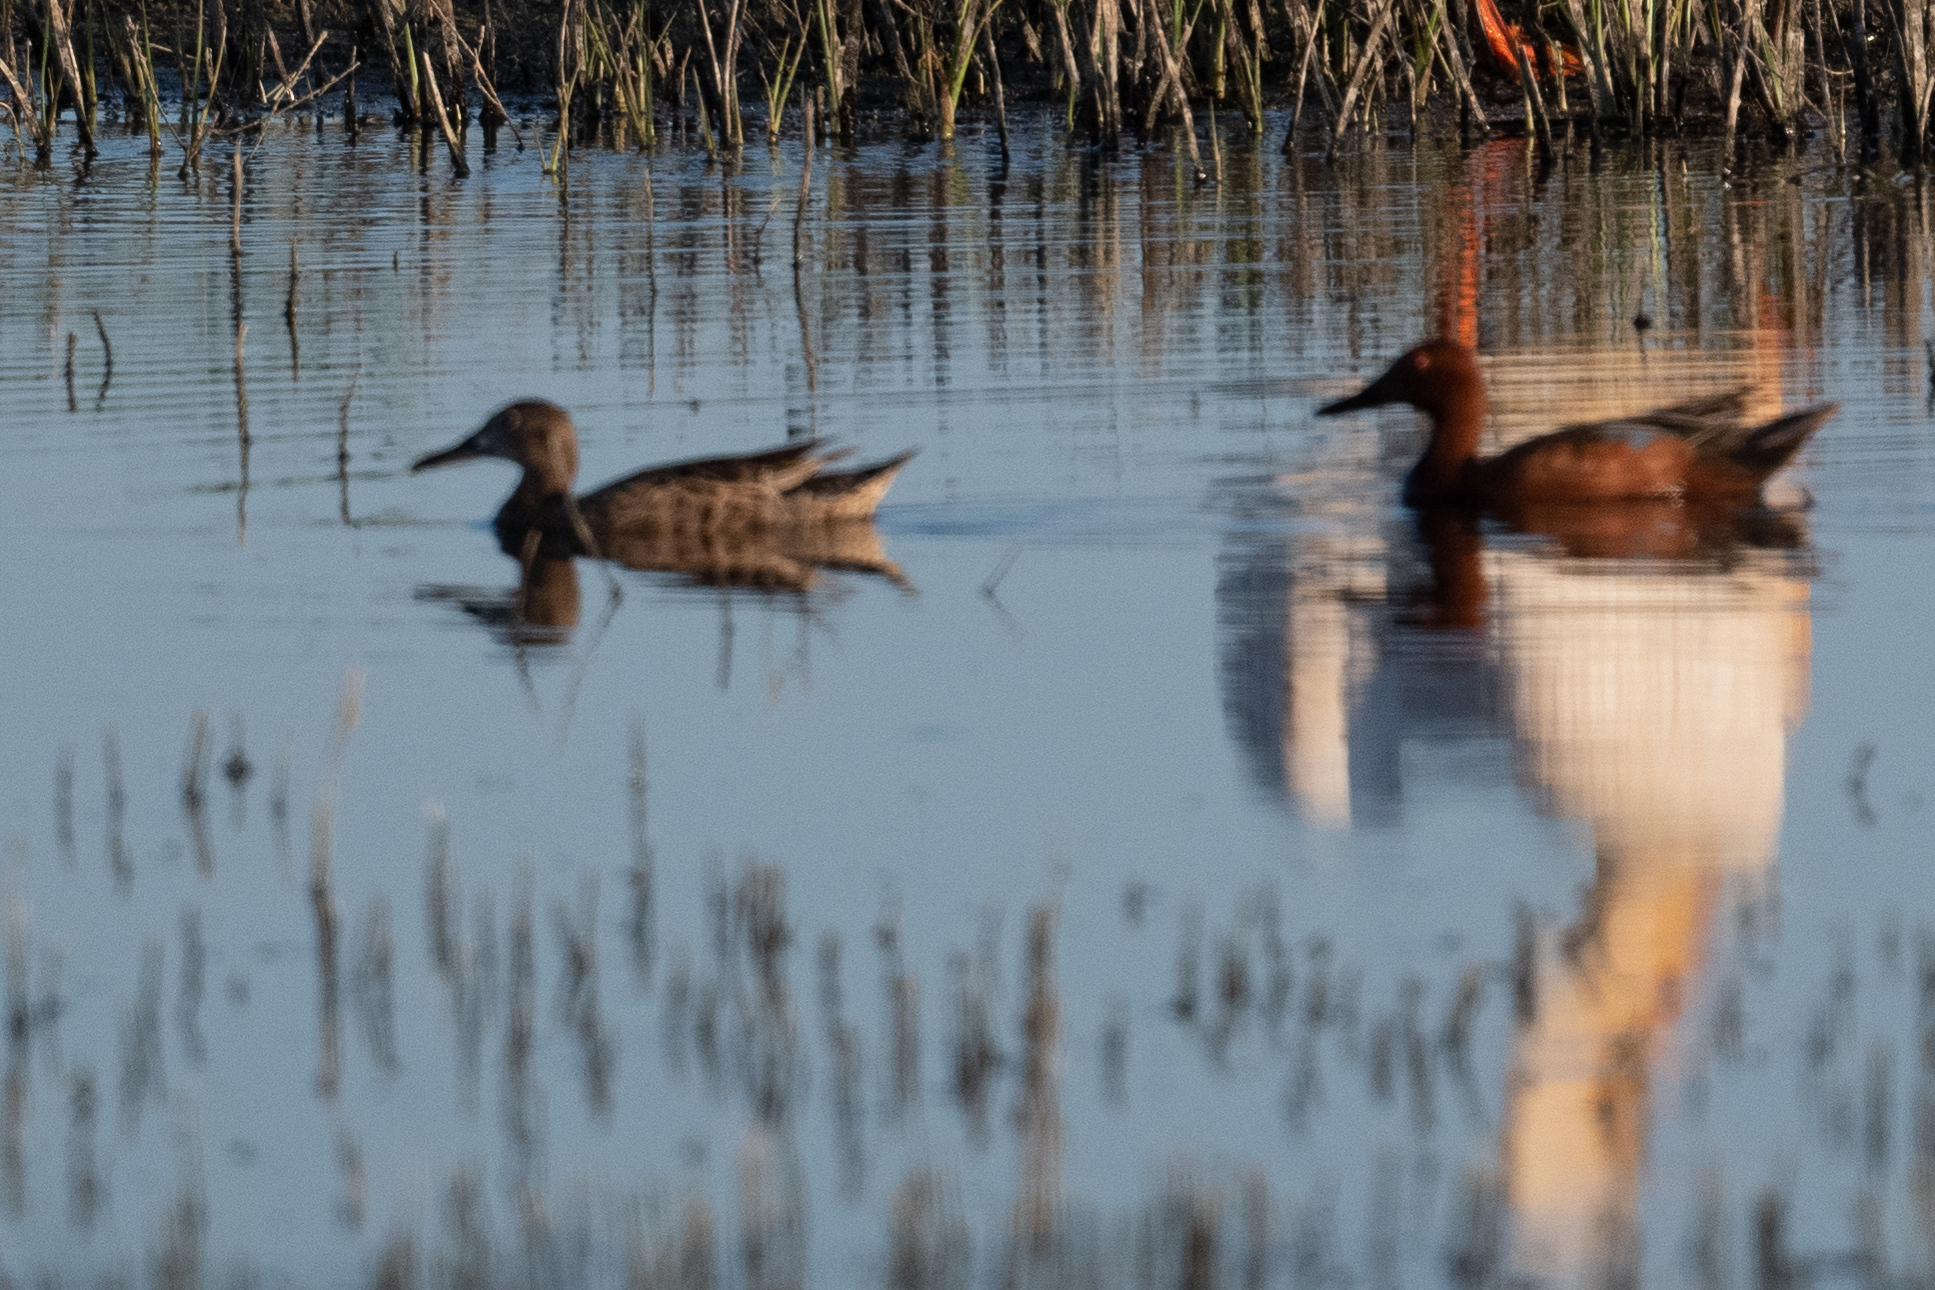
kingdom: Animalia
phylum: Chordata
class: Aves
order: Anseriformes
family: Anatidae
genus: Spatula
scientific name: Spatula cyanoptera
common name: Cinnamon teal
